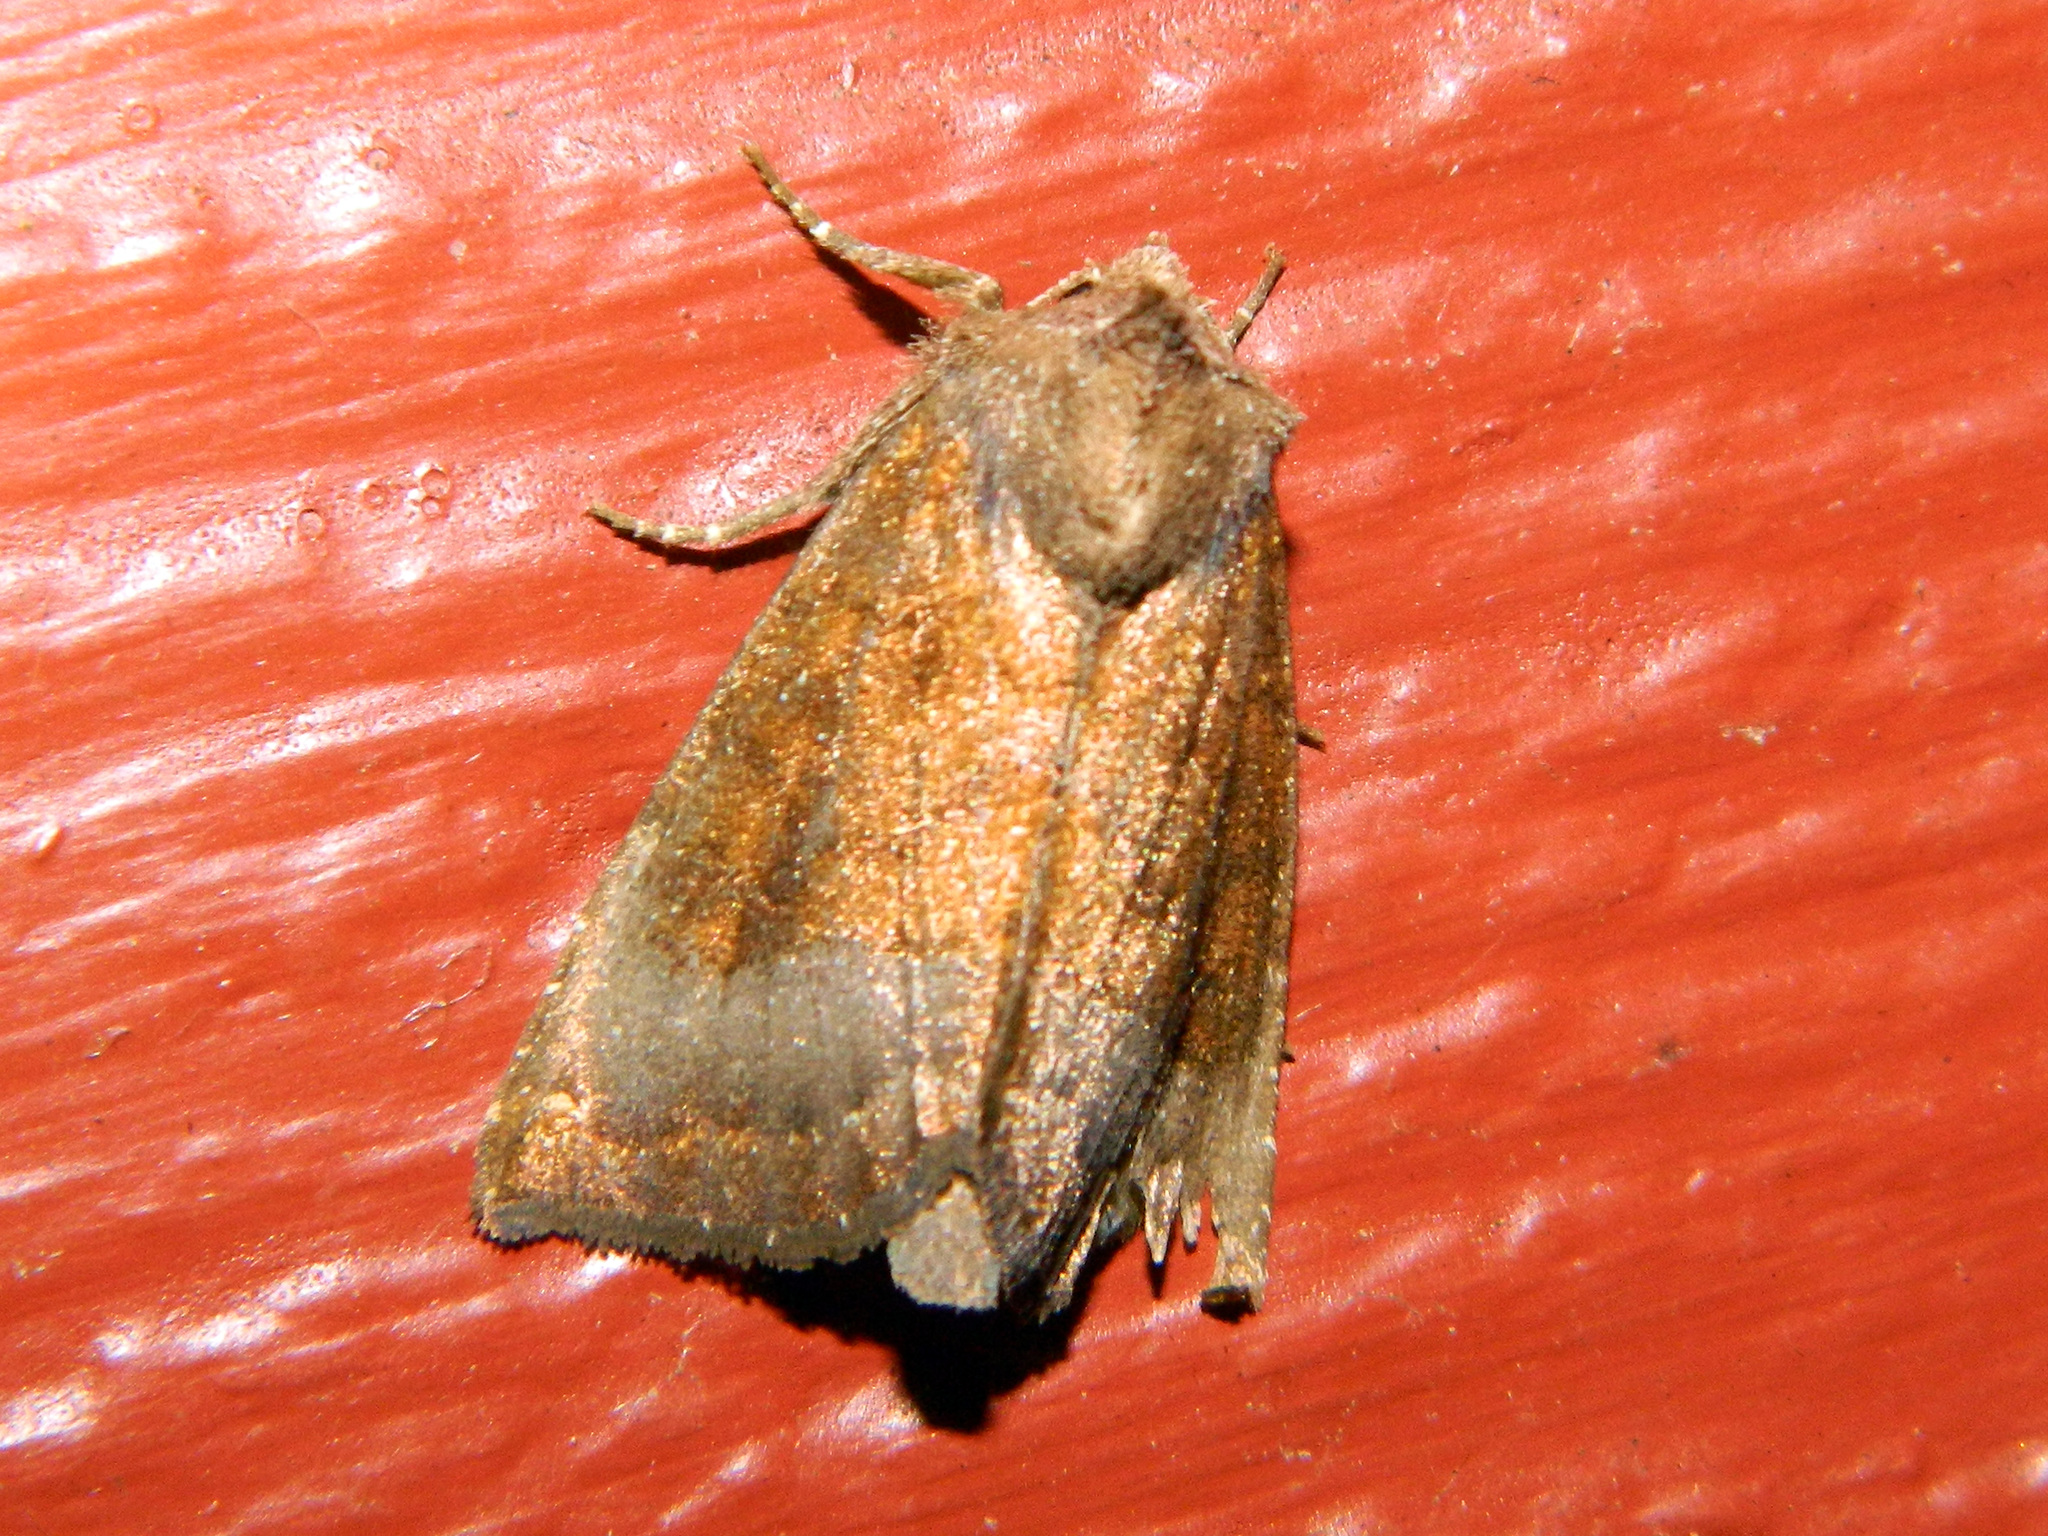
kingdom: Animalia
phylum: Arthropoda
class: Insecta
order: Lepidoptera
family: Noctuidae
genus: Papaipema
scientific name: Papaipema unimoda
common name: Meadow rue borer moth
